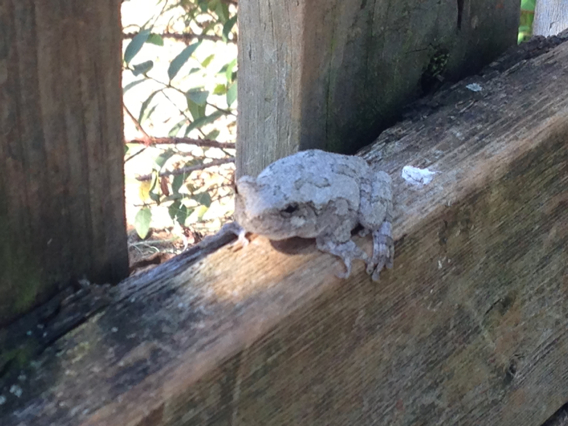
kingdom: Animalia
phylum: Chordata
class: Amphibia
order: Anura
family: Hylidae
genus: Dryophytes
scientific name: Dryophytes versicolor
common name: Gray treefrog
